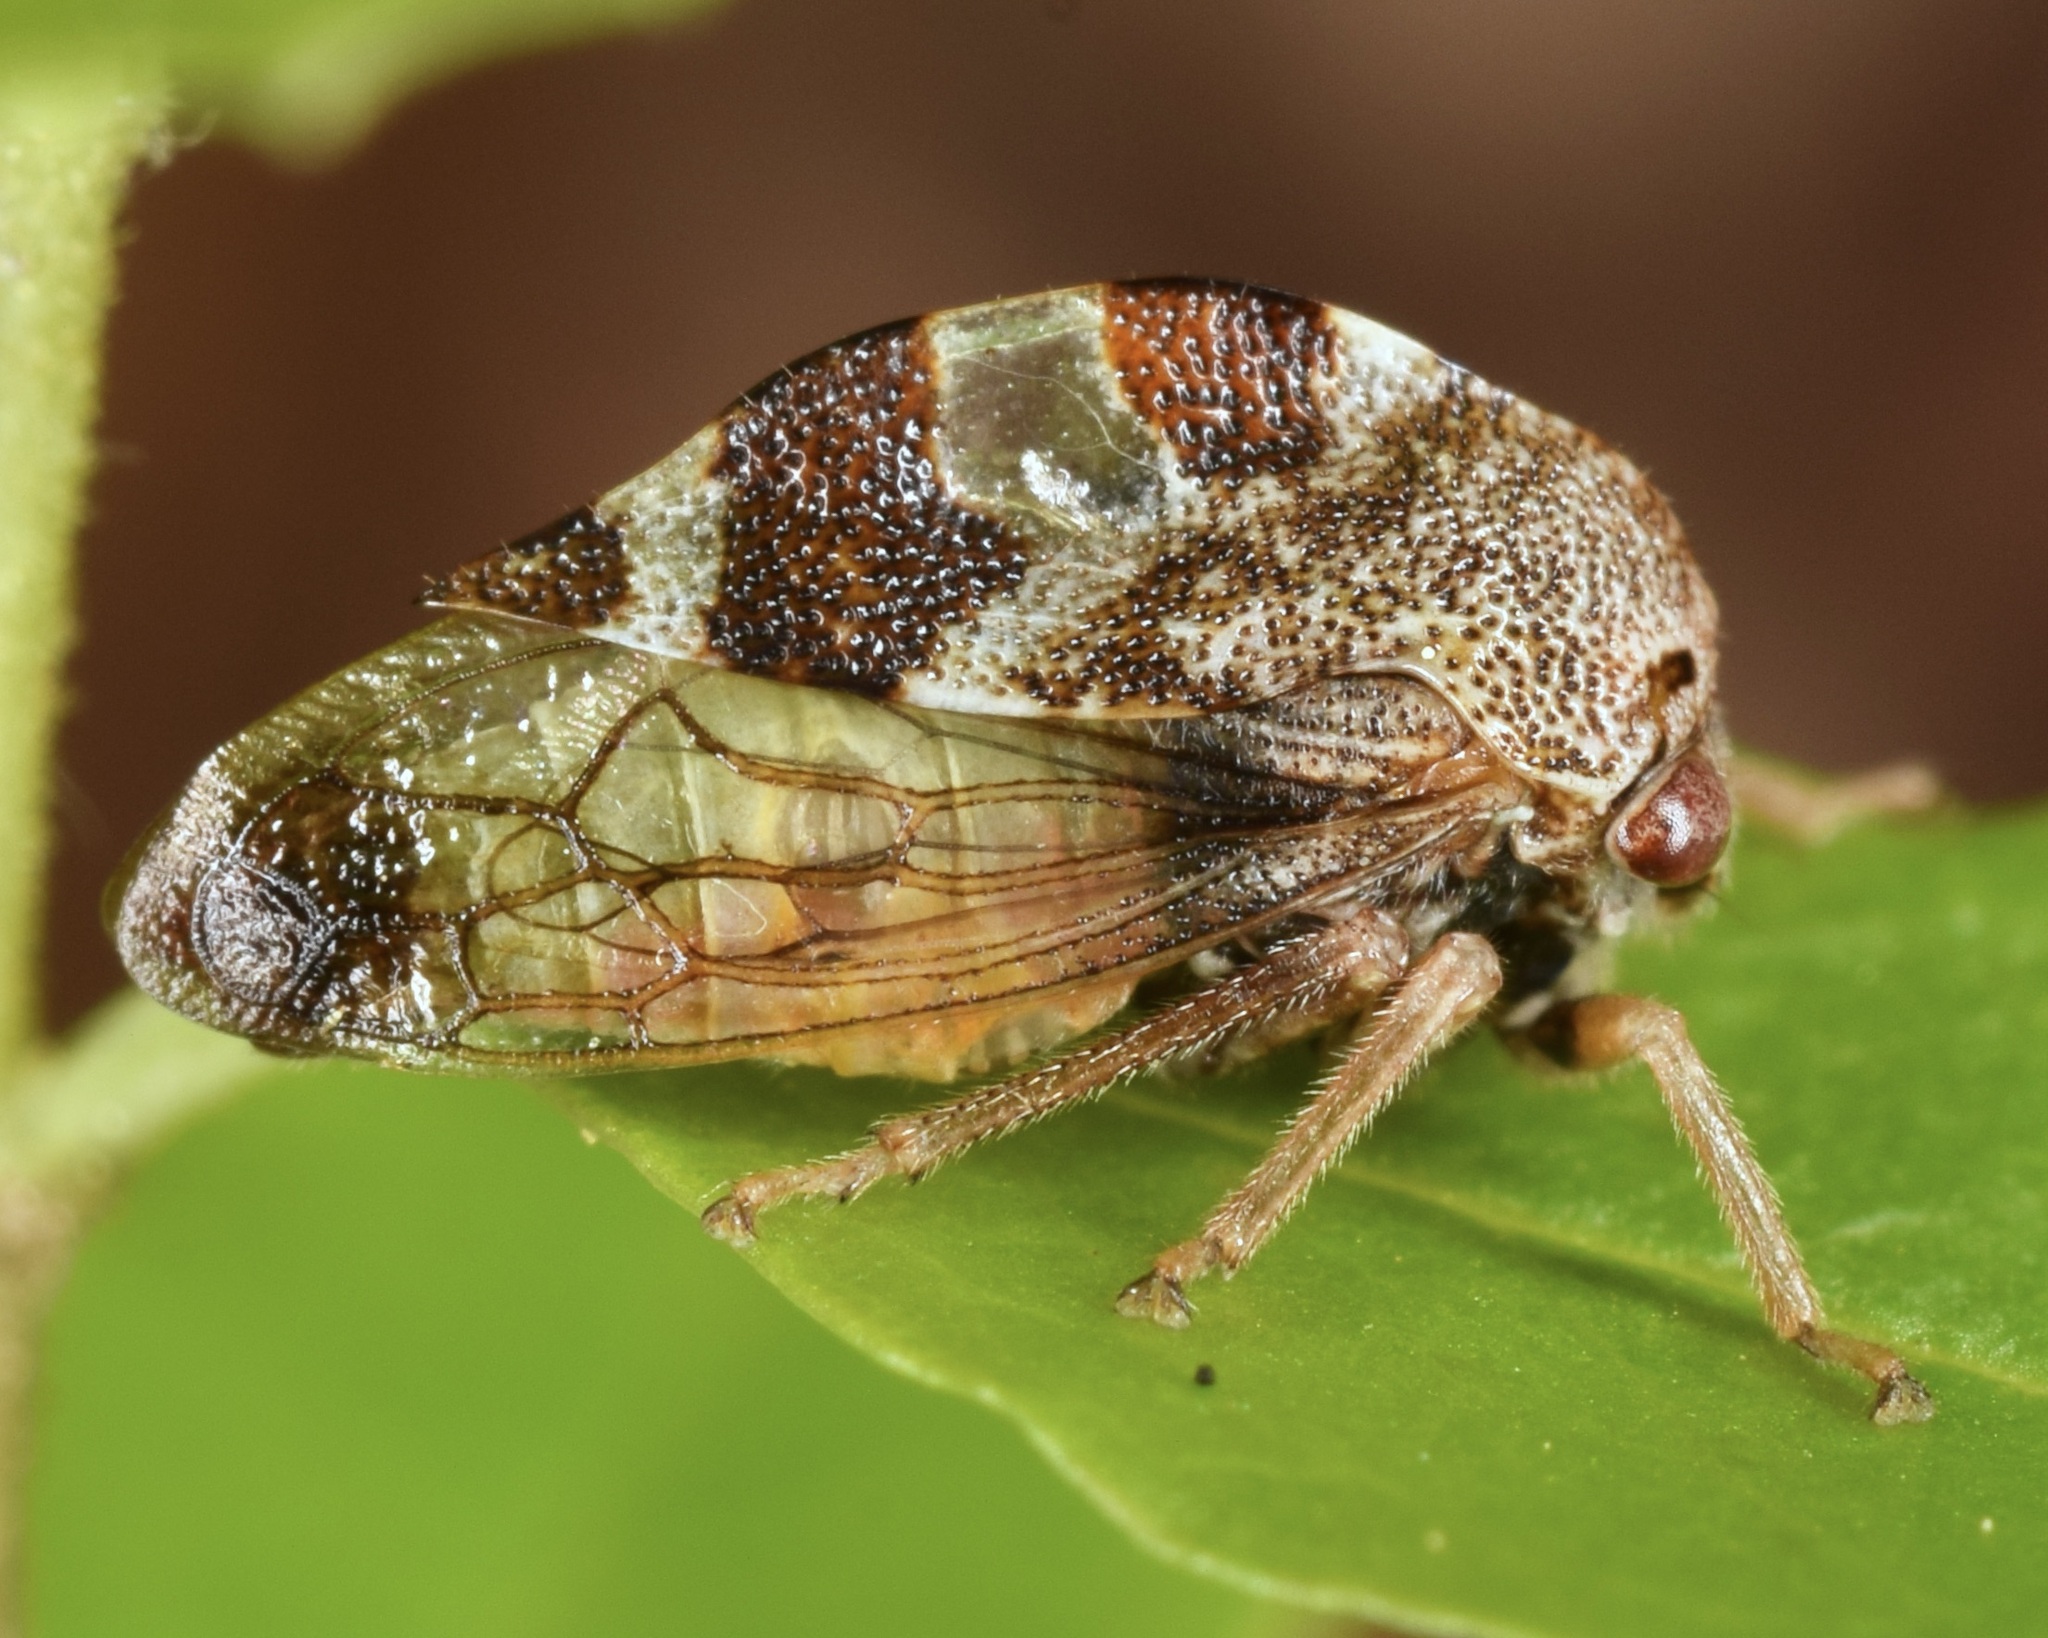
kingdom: Animalia
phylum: Arthropoda
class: Insecta
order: Hemiptera
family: Membracidae
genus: Cyrtolobus
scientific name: Cyrtolobus tuberosa
